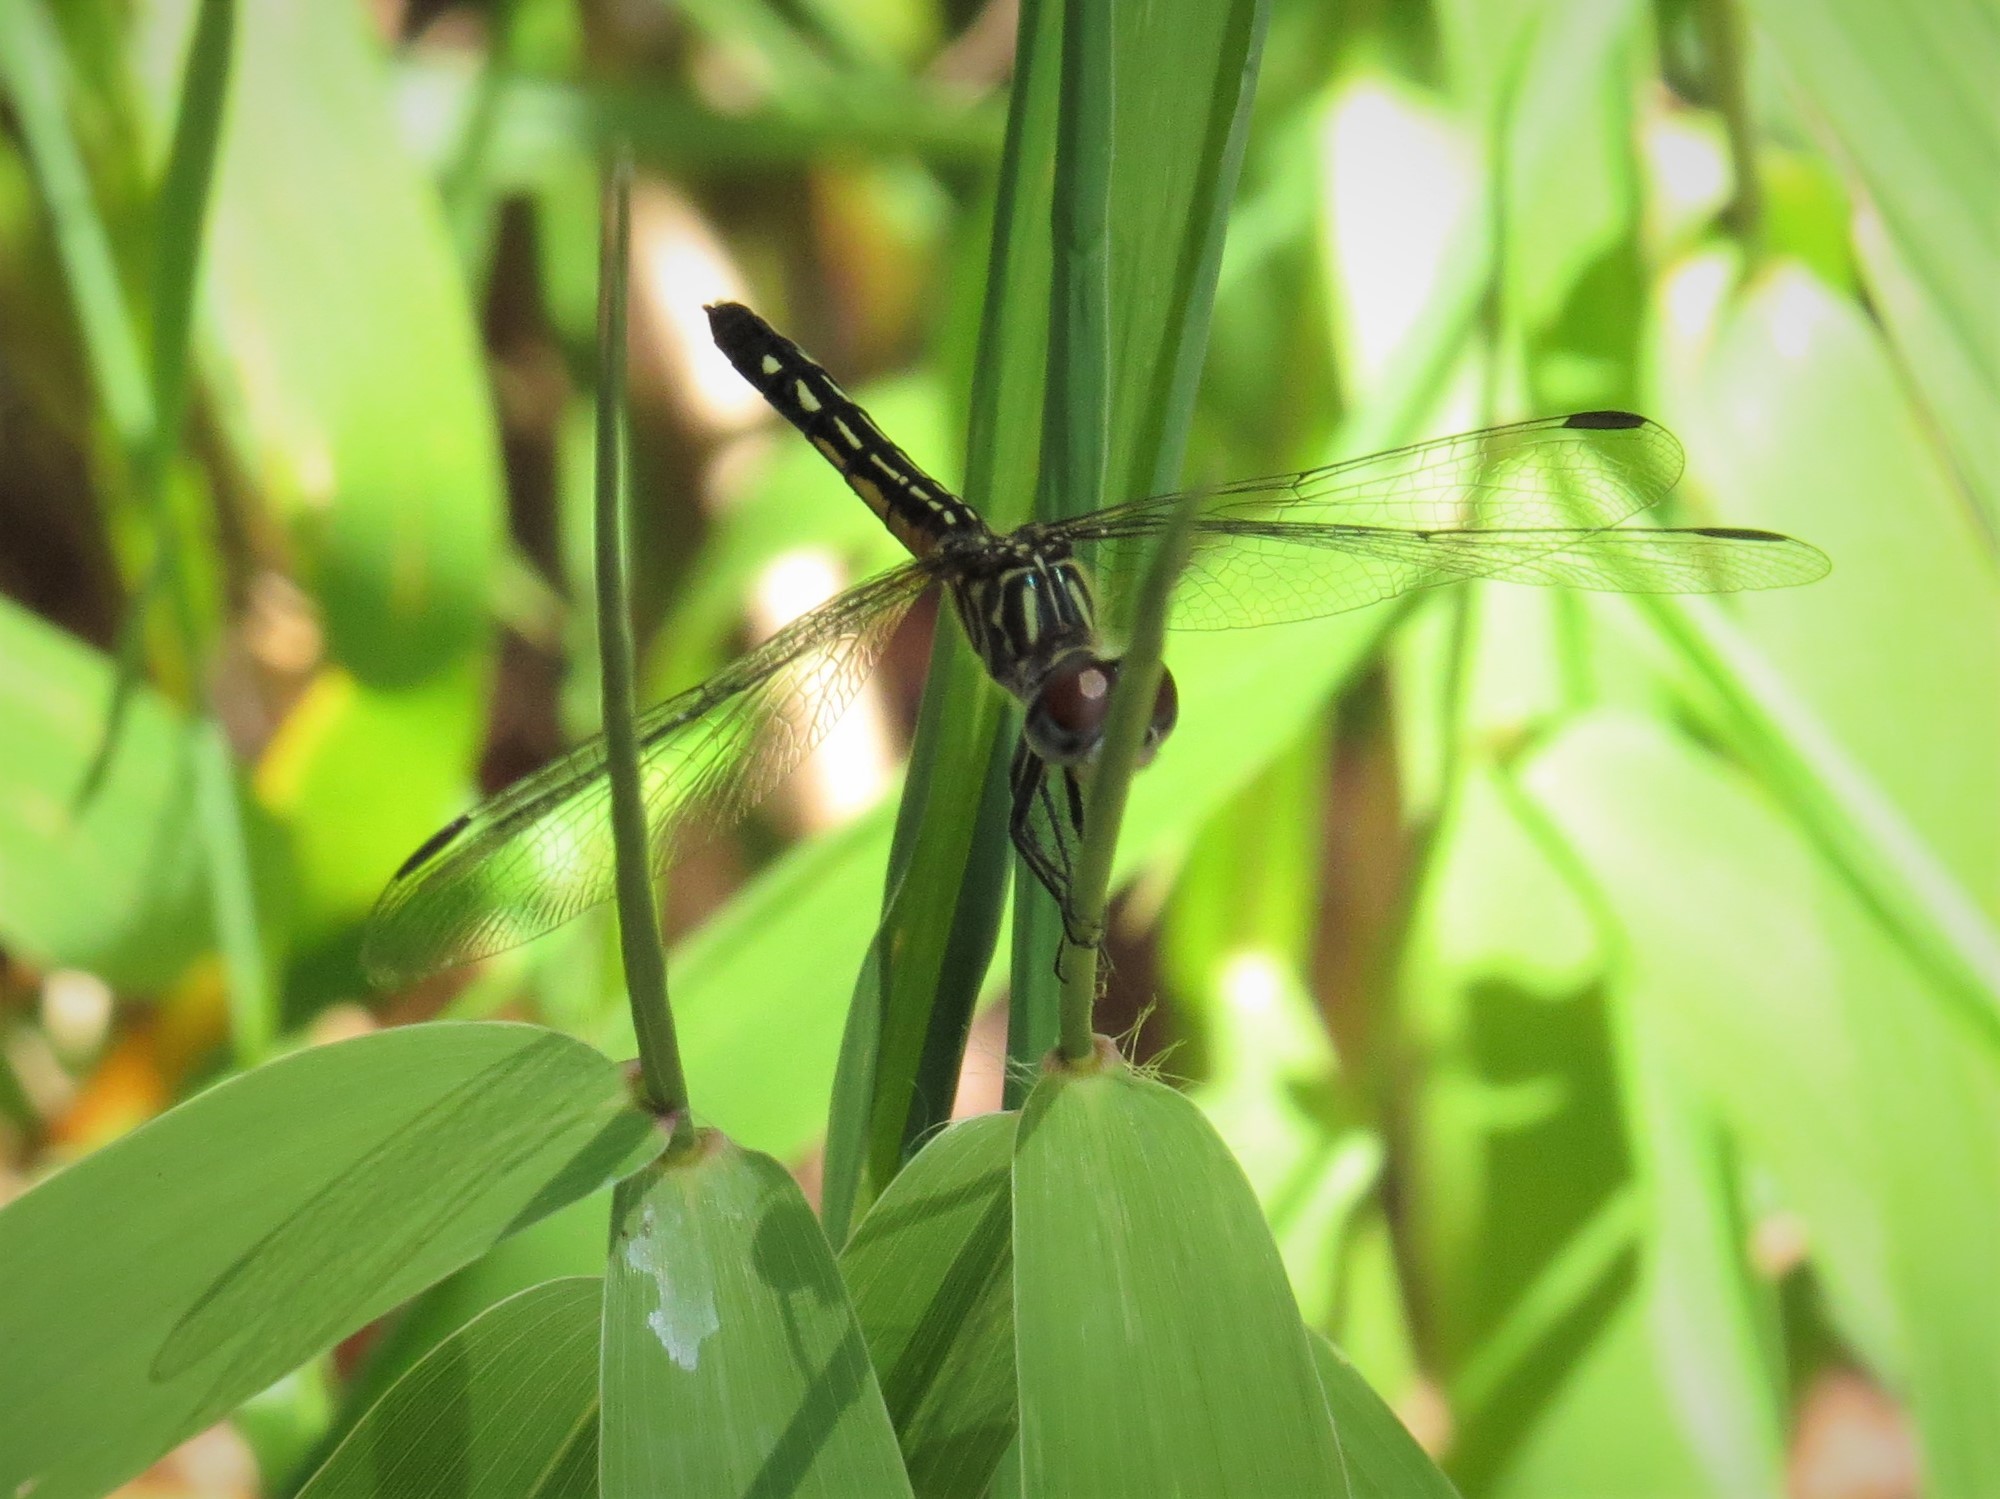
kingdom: Animalia
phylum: Arthropoda
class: Insecta
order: Odonata
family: Libellulidae
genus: Pachydiplax
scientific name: Pachydiplax longipennis
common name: Blue dasher
